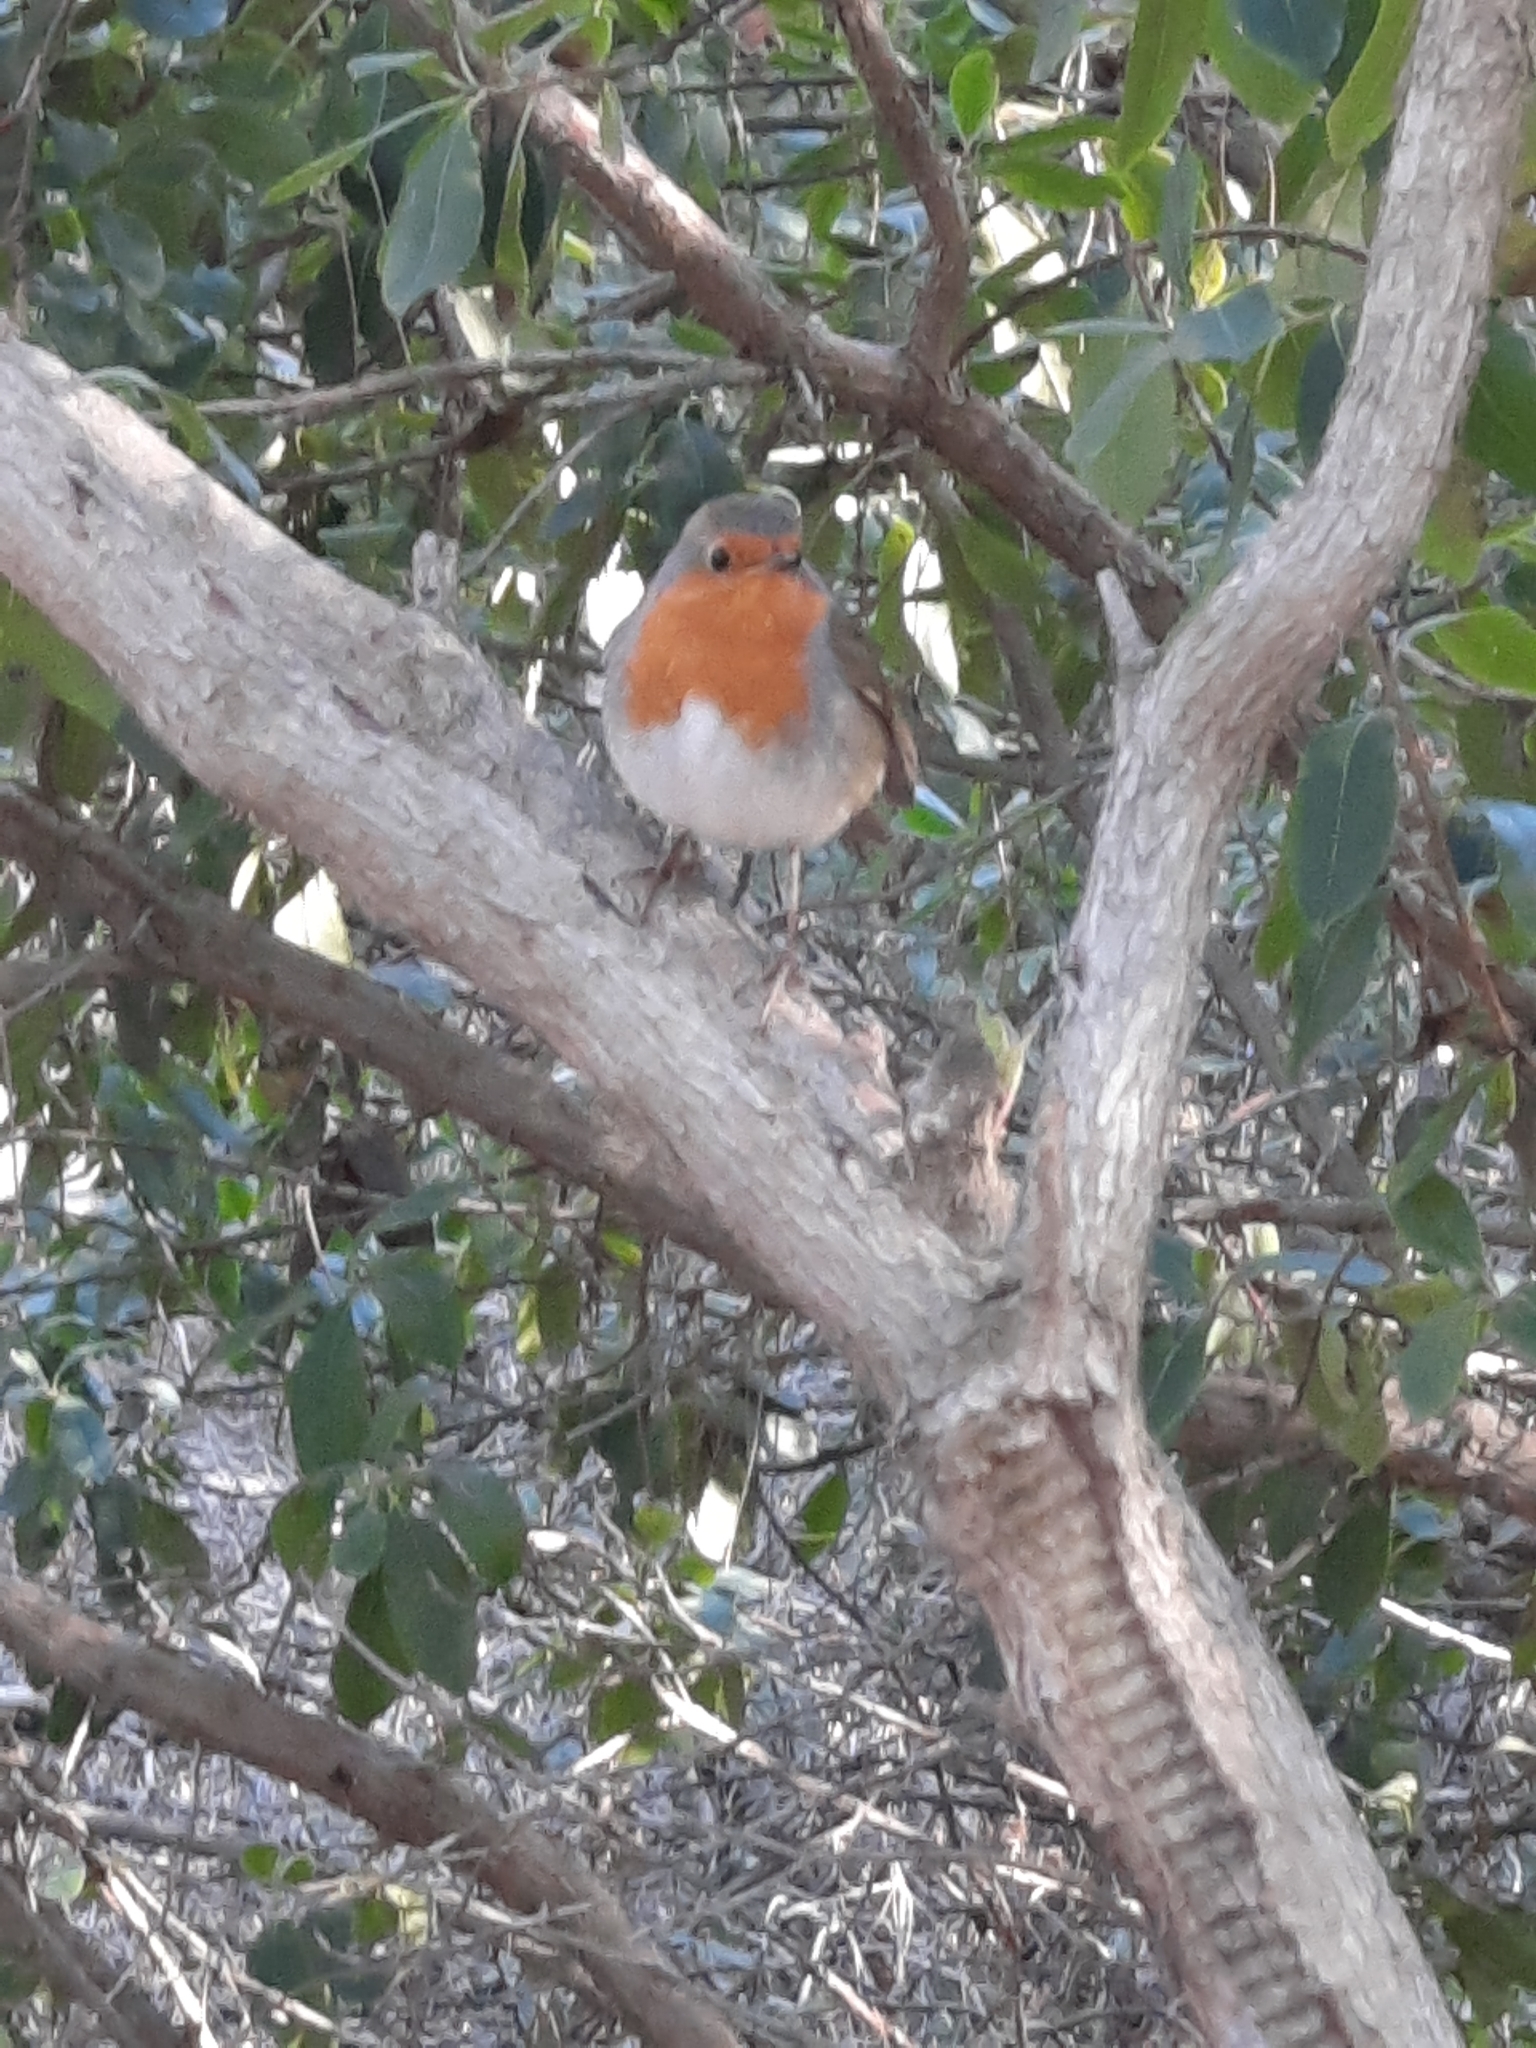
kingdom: Animalia
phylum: Chordata
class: Aves
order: Passeriformes
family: Muscicapidae
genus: Erithacus
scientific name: Erithacus rubecula
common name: European robin
